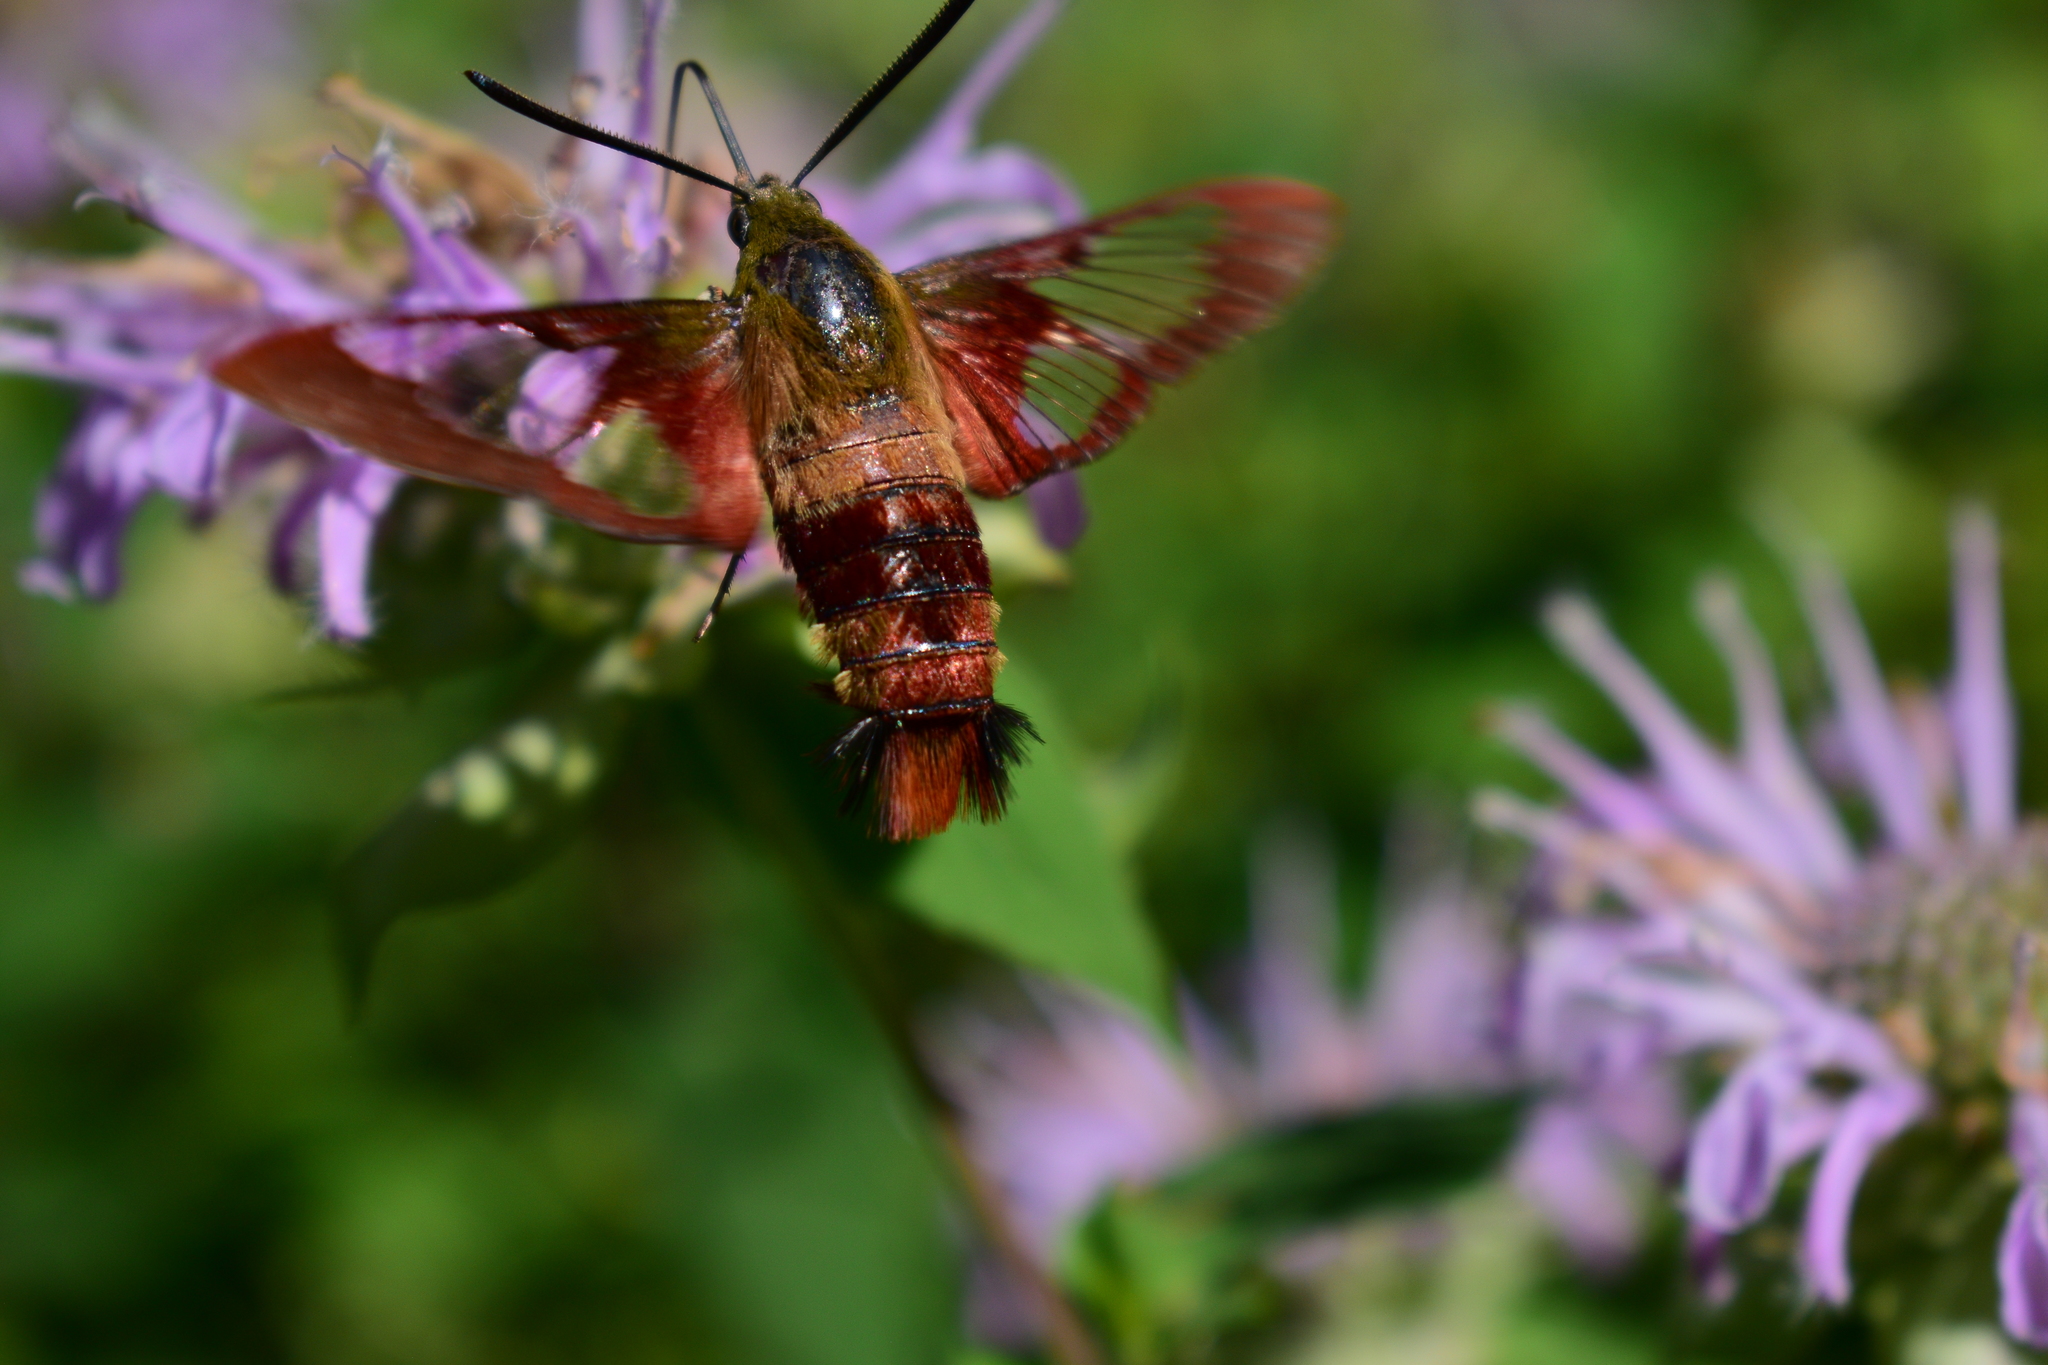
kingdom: Animalia
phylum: Arthropoda
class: Insecta
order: Lepidoptera
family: Sphingidae
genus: Hemaris
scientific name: Hemaris thysbe
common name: Common clear-wing
